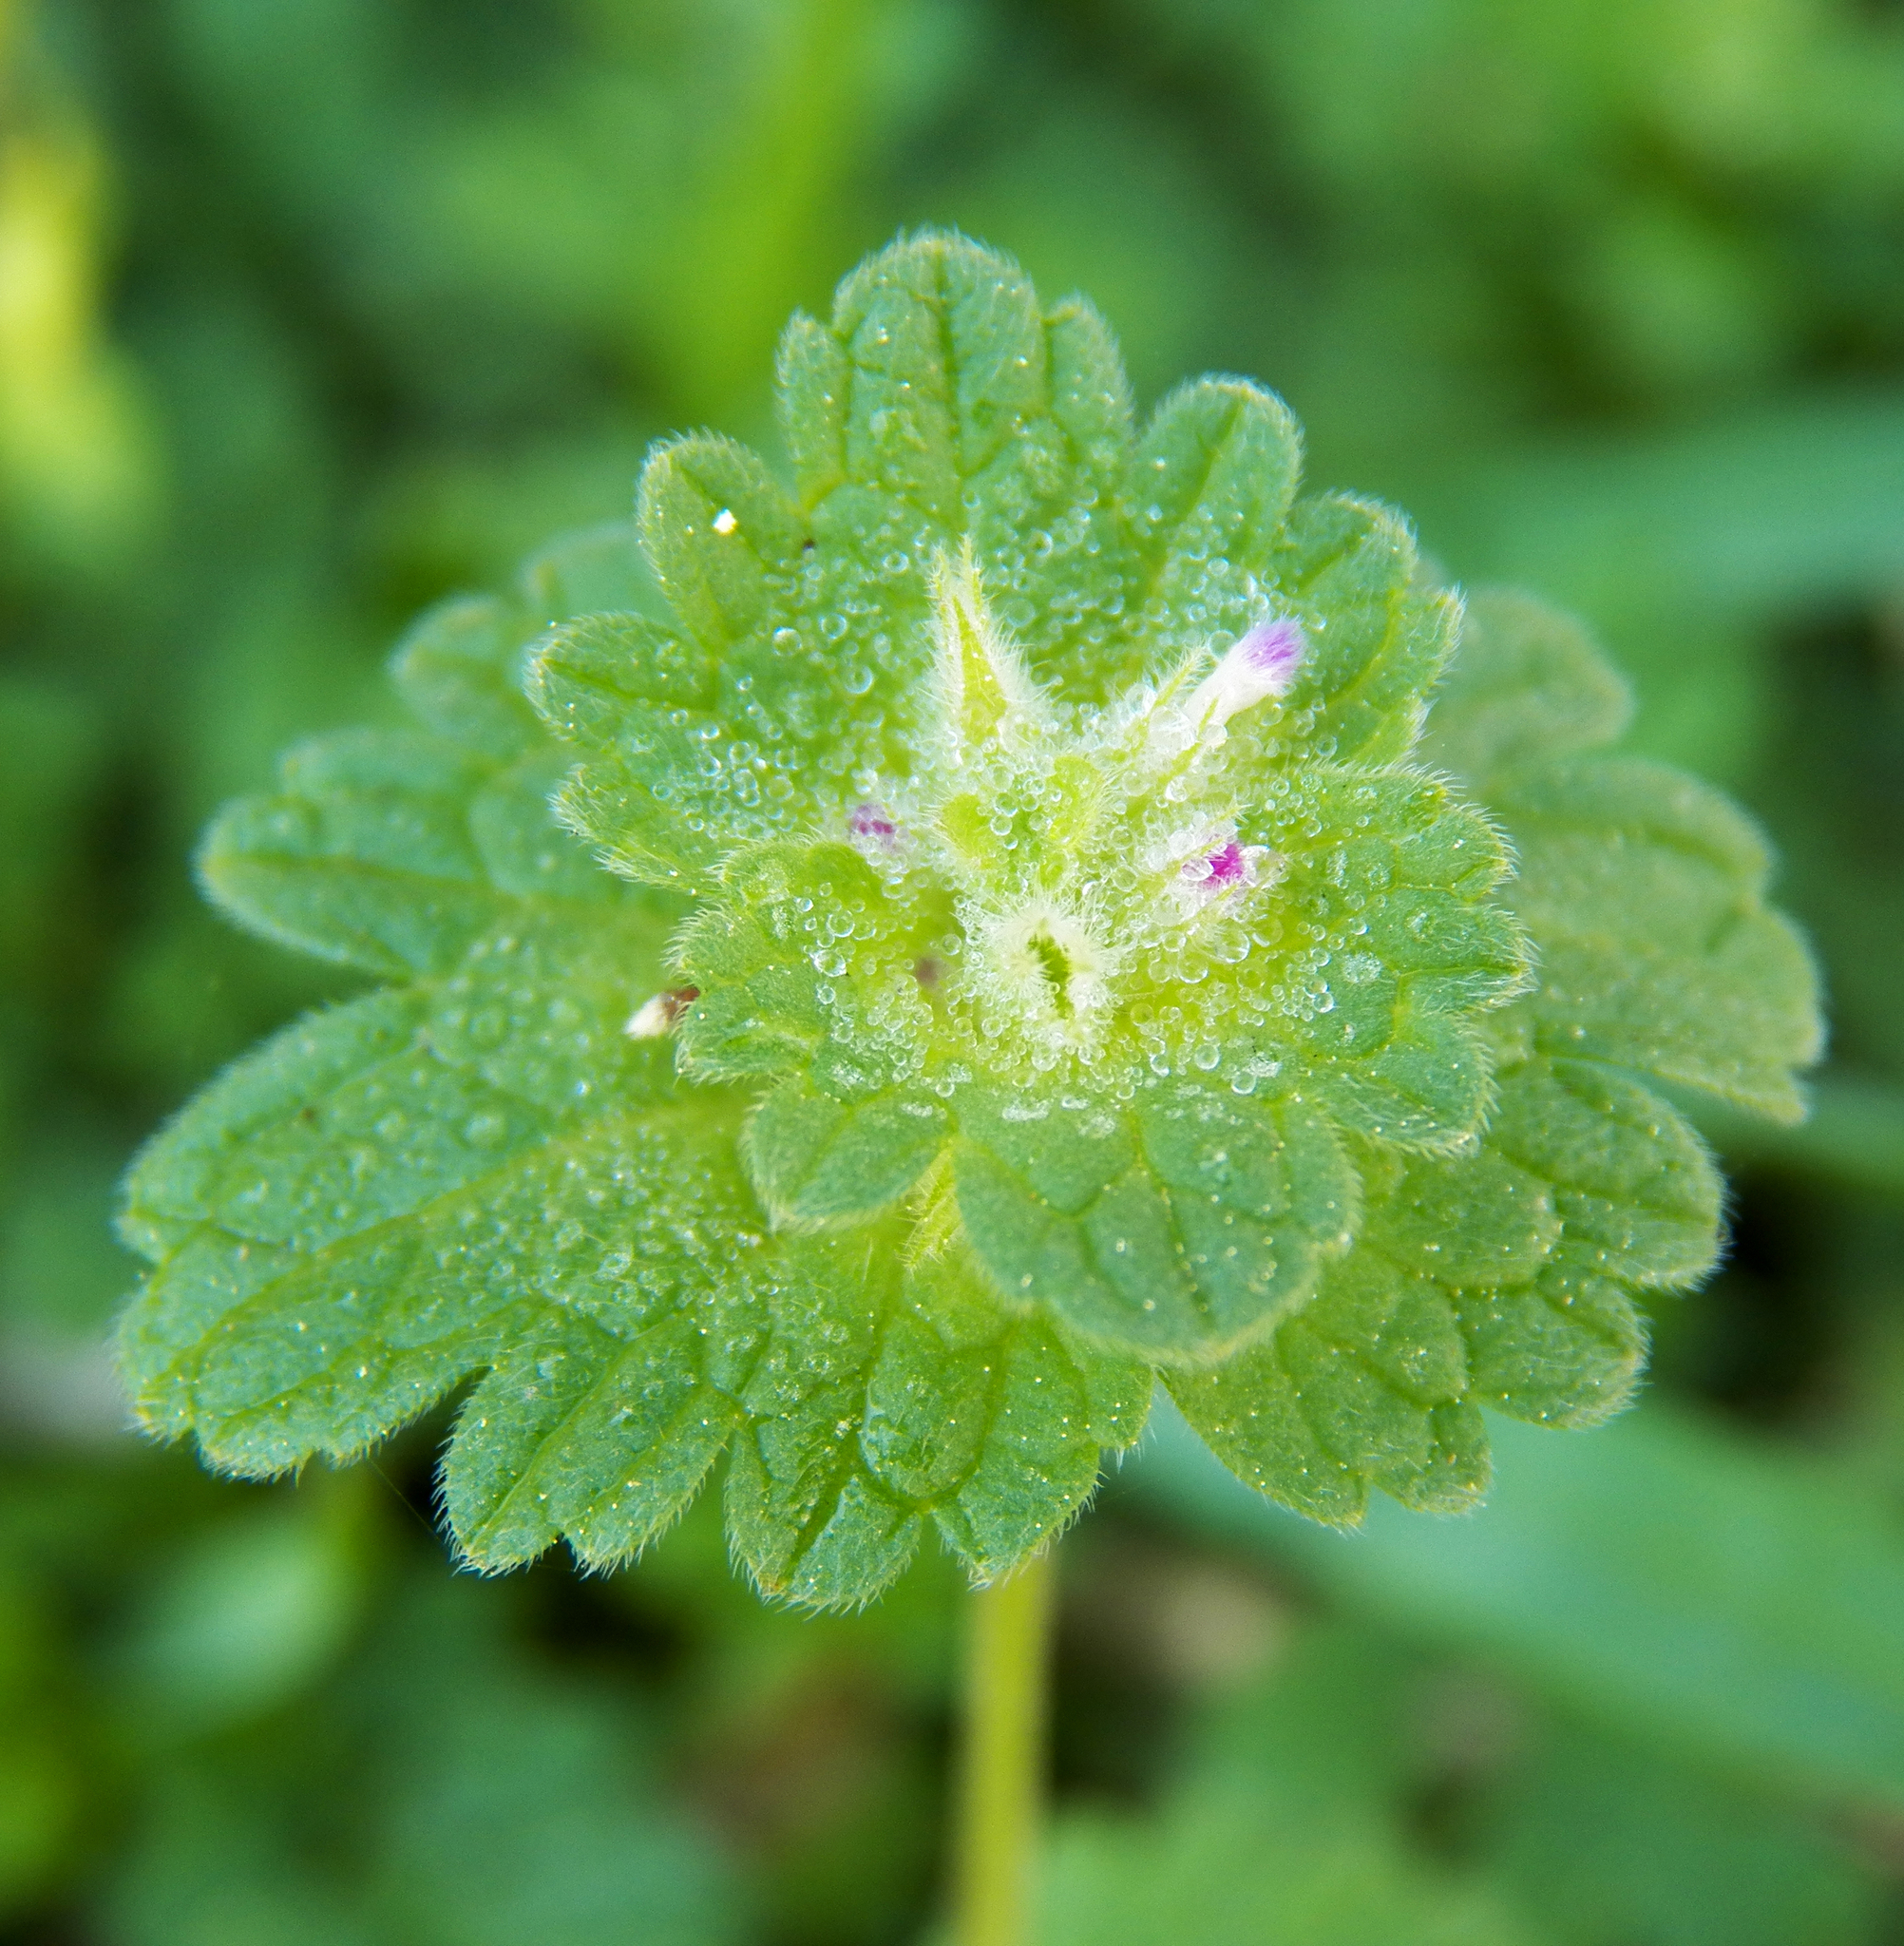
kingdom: Plantae
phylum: Tracheophyta
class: Magnoliopsida
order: Lamiales
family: Lamiaceae
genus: Lamium
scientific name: Lamium amplexicaule
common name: Henbit dead-nettle
